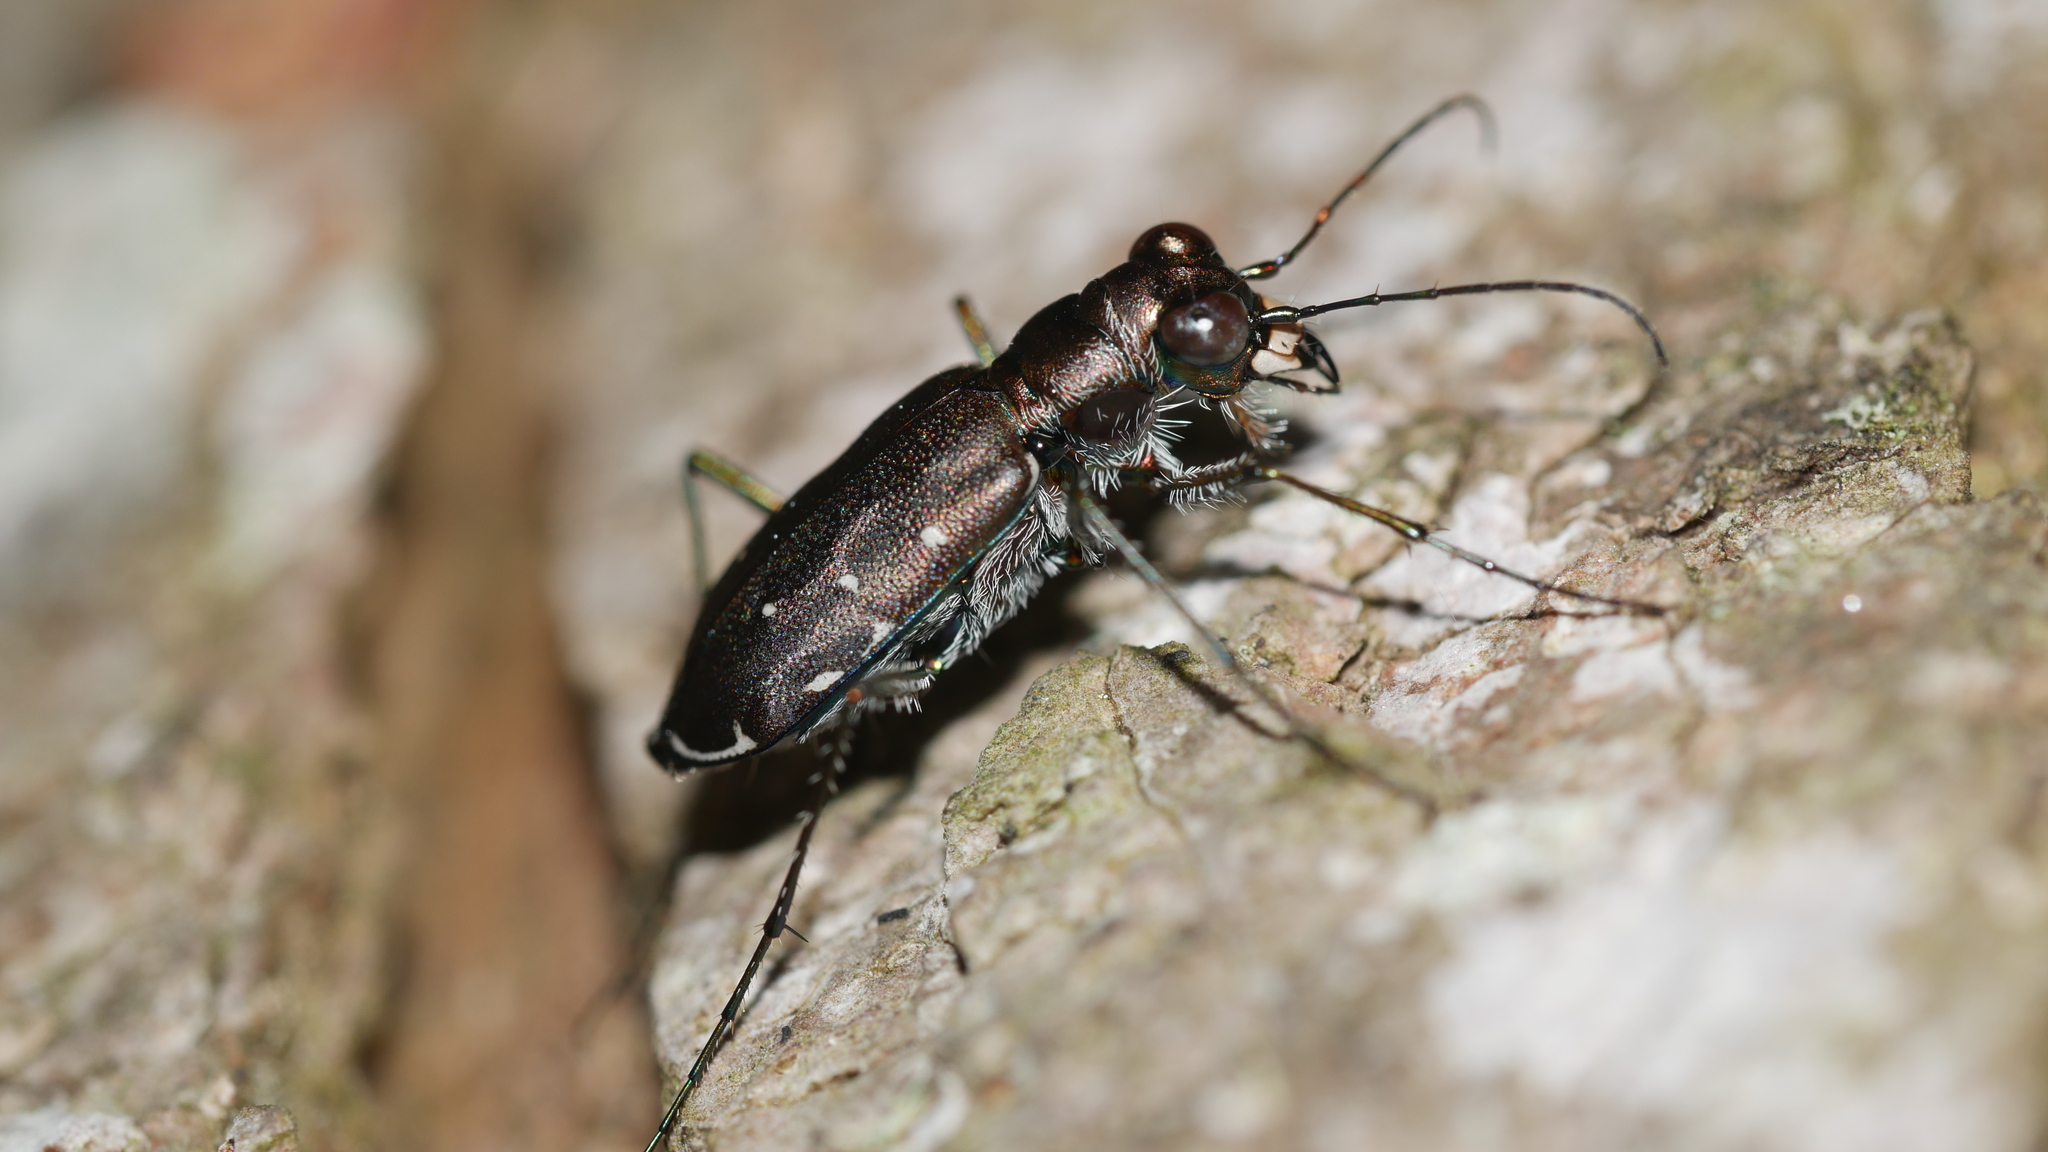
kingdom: Animalia
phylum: Arthropoda
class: Insecta
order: Coleoptera
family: Carabidae
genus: Cicindela
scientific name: Cicindela punctulata
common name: Punctured tiger beetle
